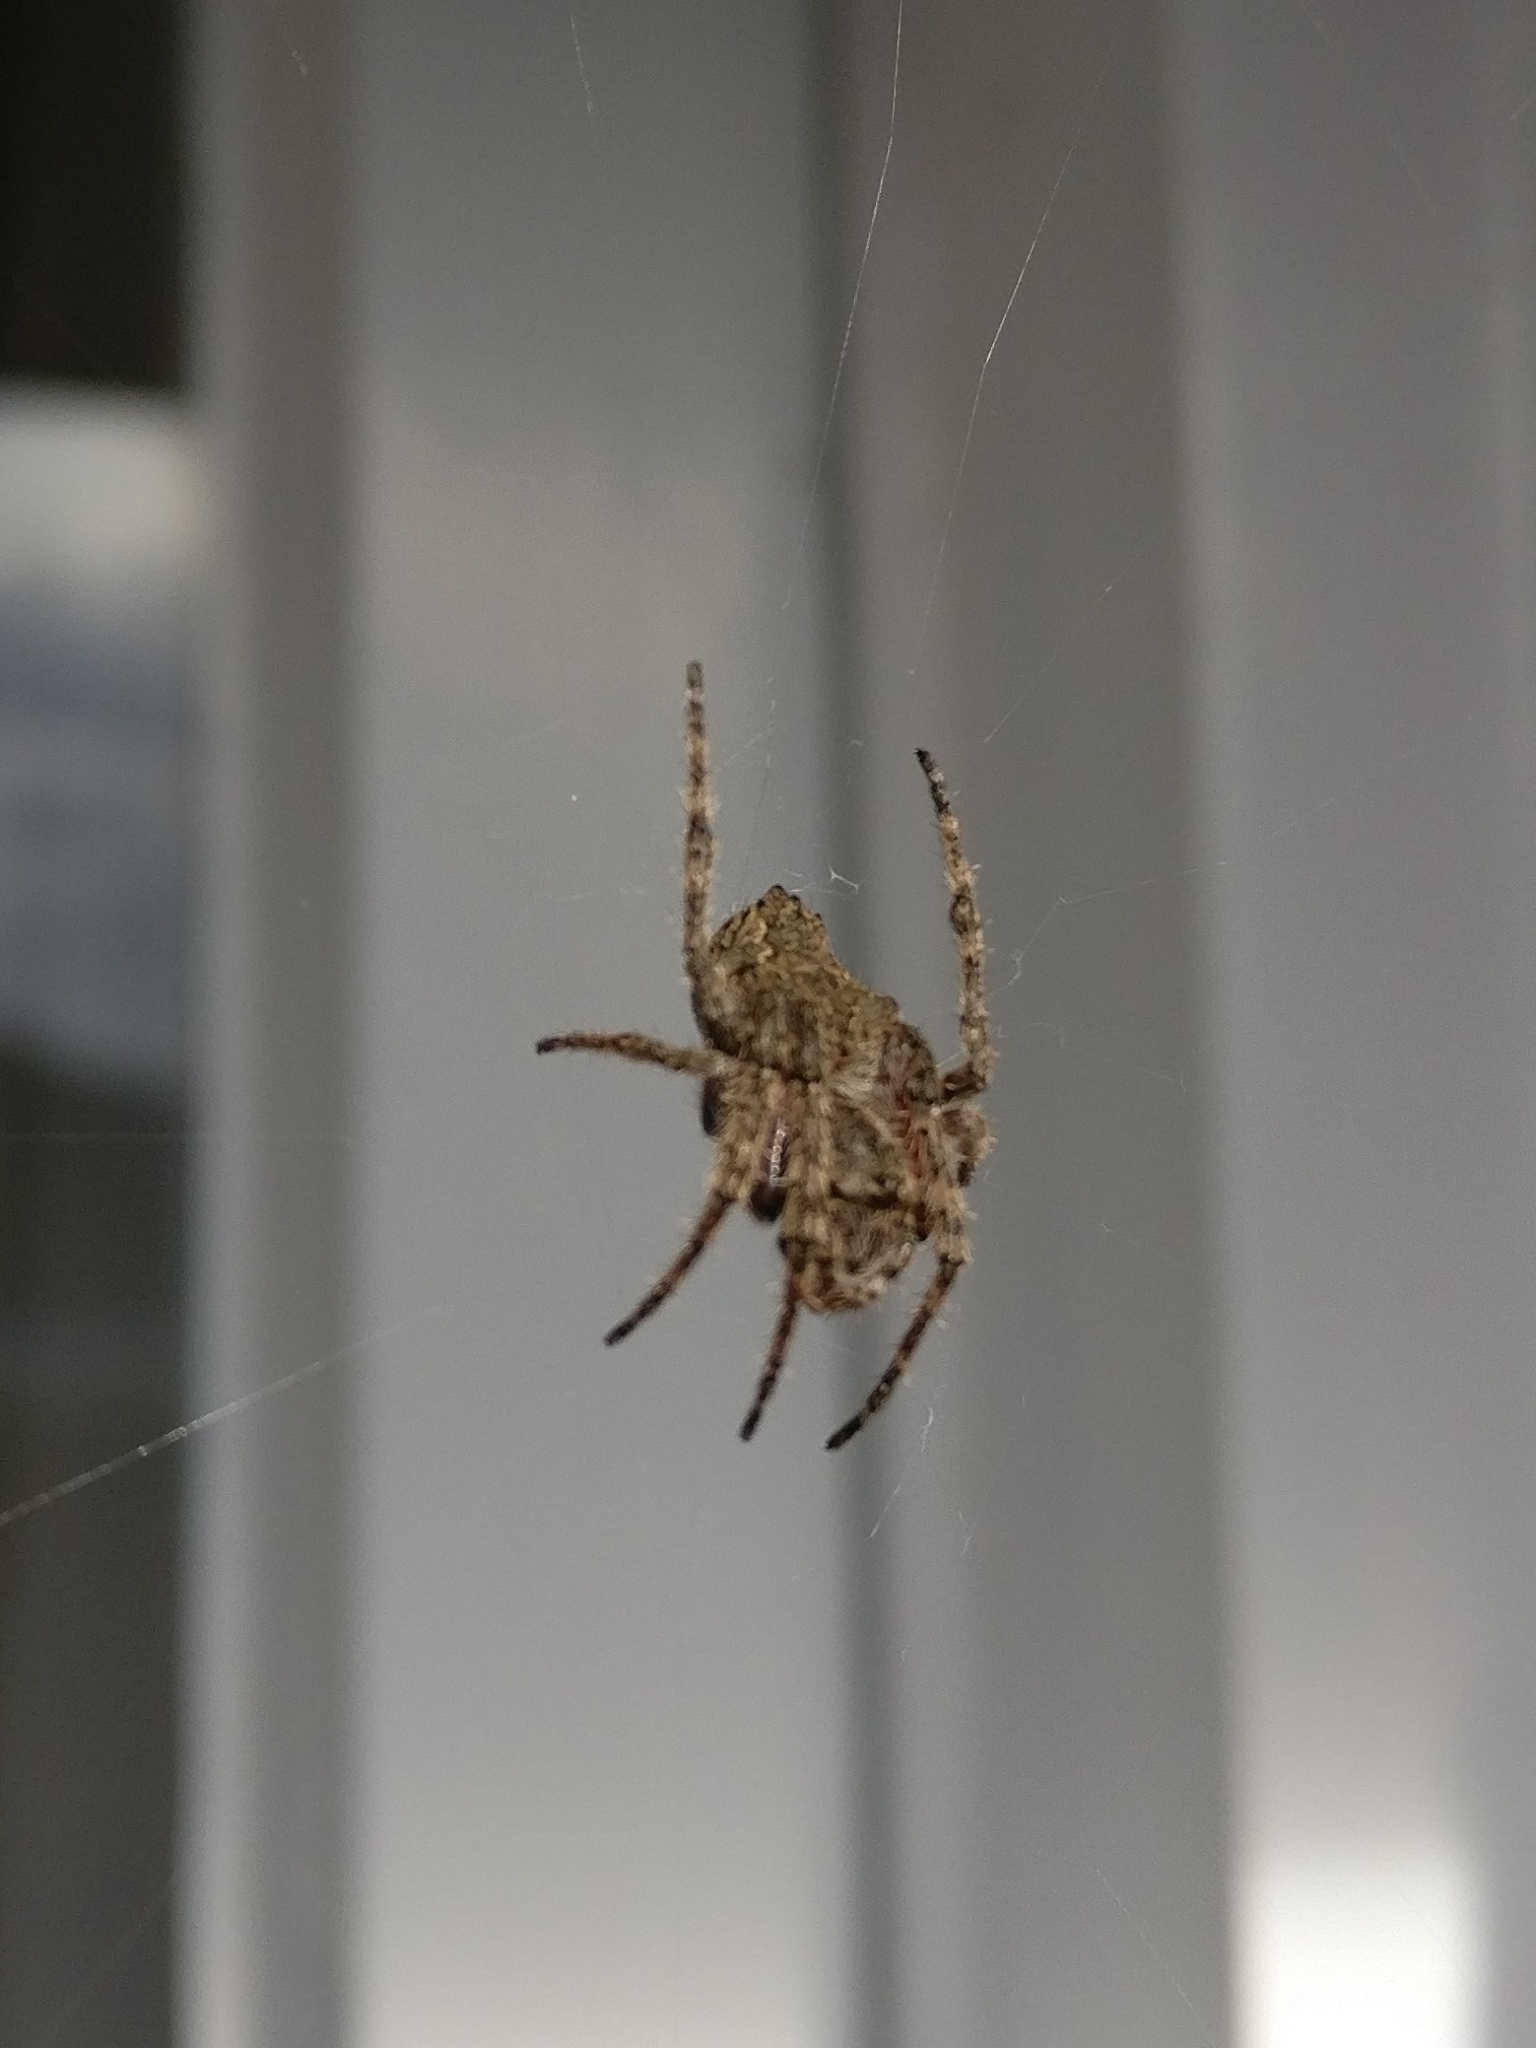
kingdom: Animalia
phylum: Arthropoda
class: Arachnida
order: Araneae
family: Araneidae
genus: Eriophora
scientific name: Eriophora pustulosa
